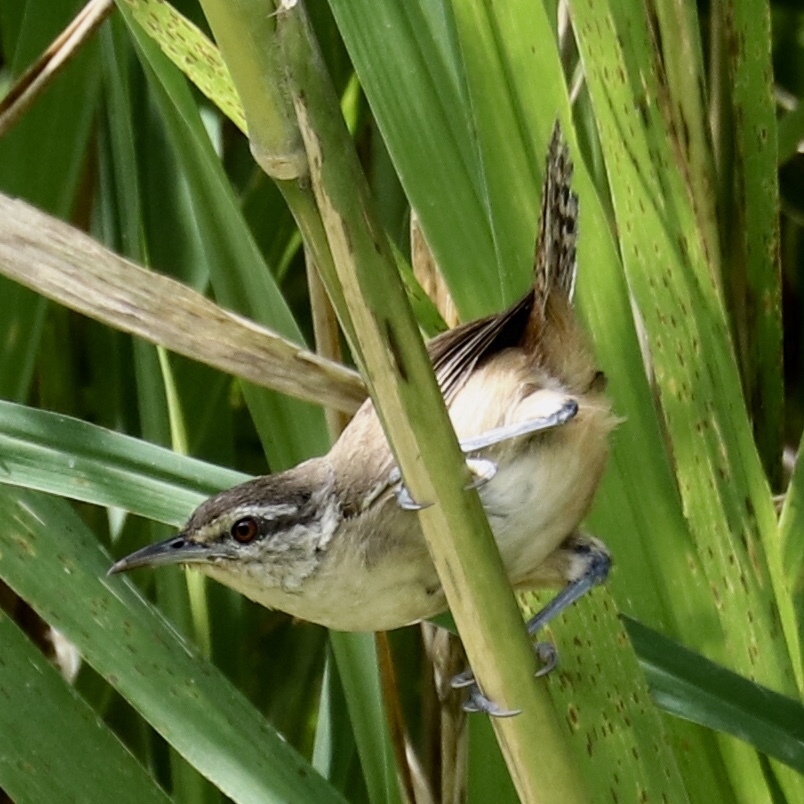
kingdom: Animalia
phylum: Chordata
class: Aves
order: Passeriformes
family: Troglodytidae
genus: Cantorchilus
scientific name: Cantorchilus modestus
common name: Cabanis's wren
